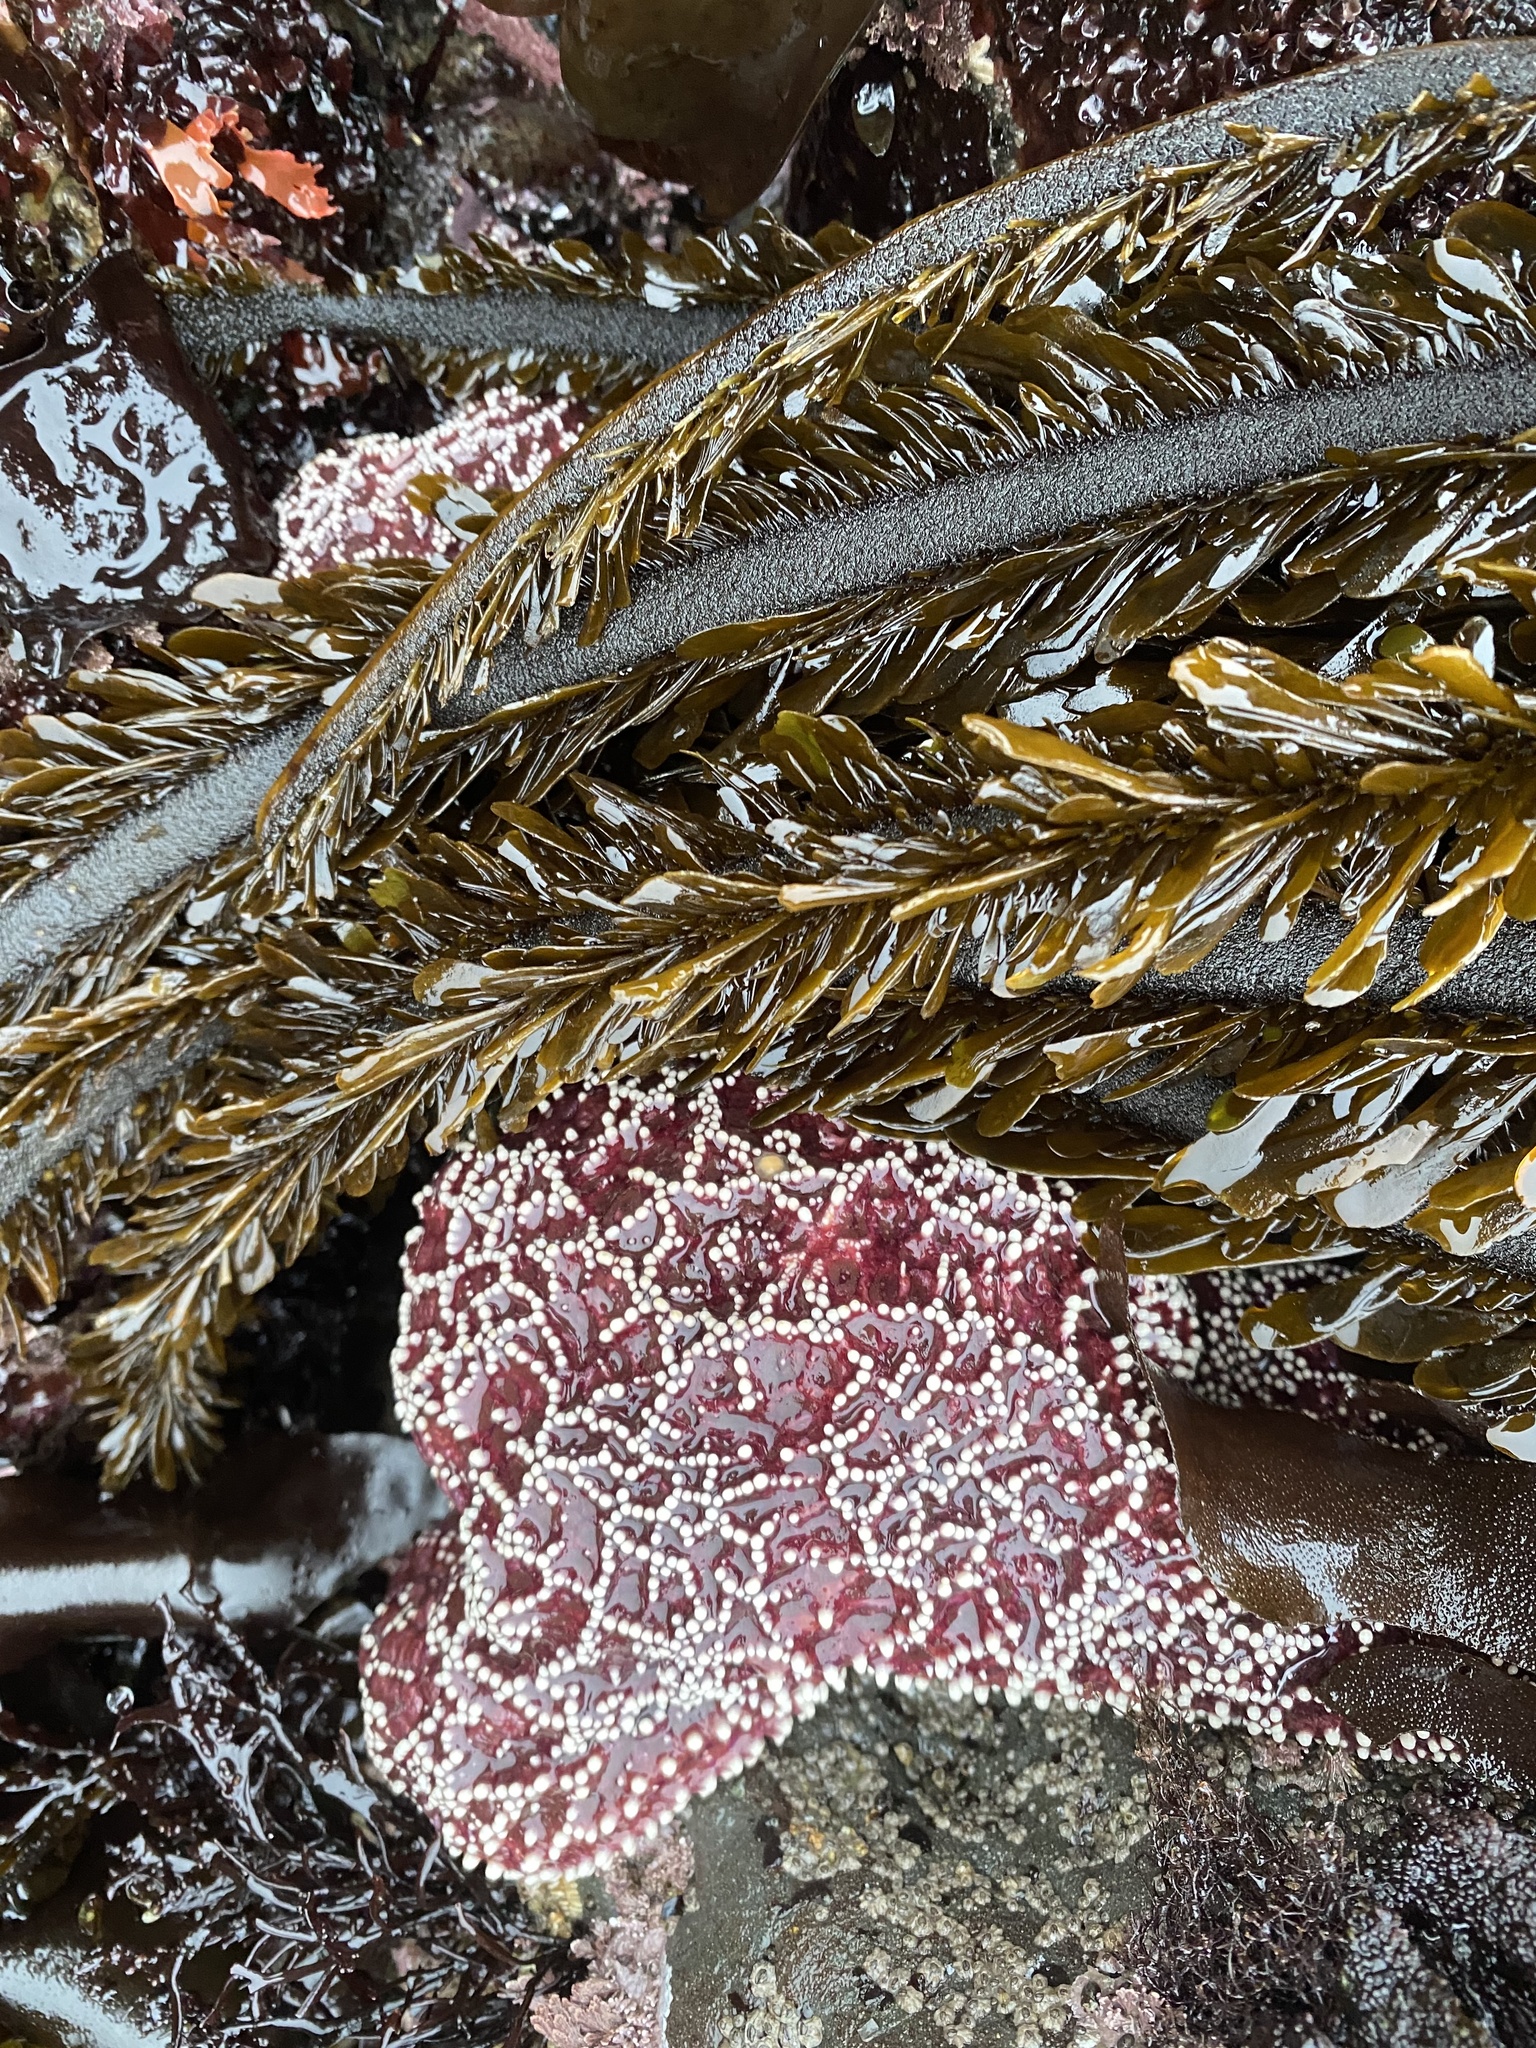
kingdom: Animalia
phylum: Echinodermata
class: Asteroidea
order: Forcipulatida
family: Asteriidae
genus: Pisaster
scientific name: Pisaster ochraceus
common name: Ochre stars
